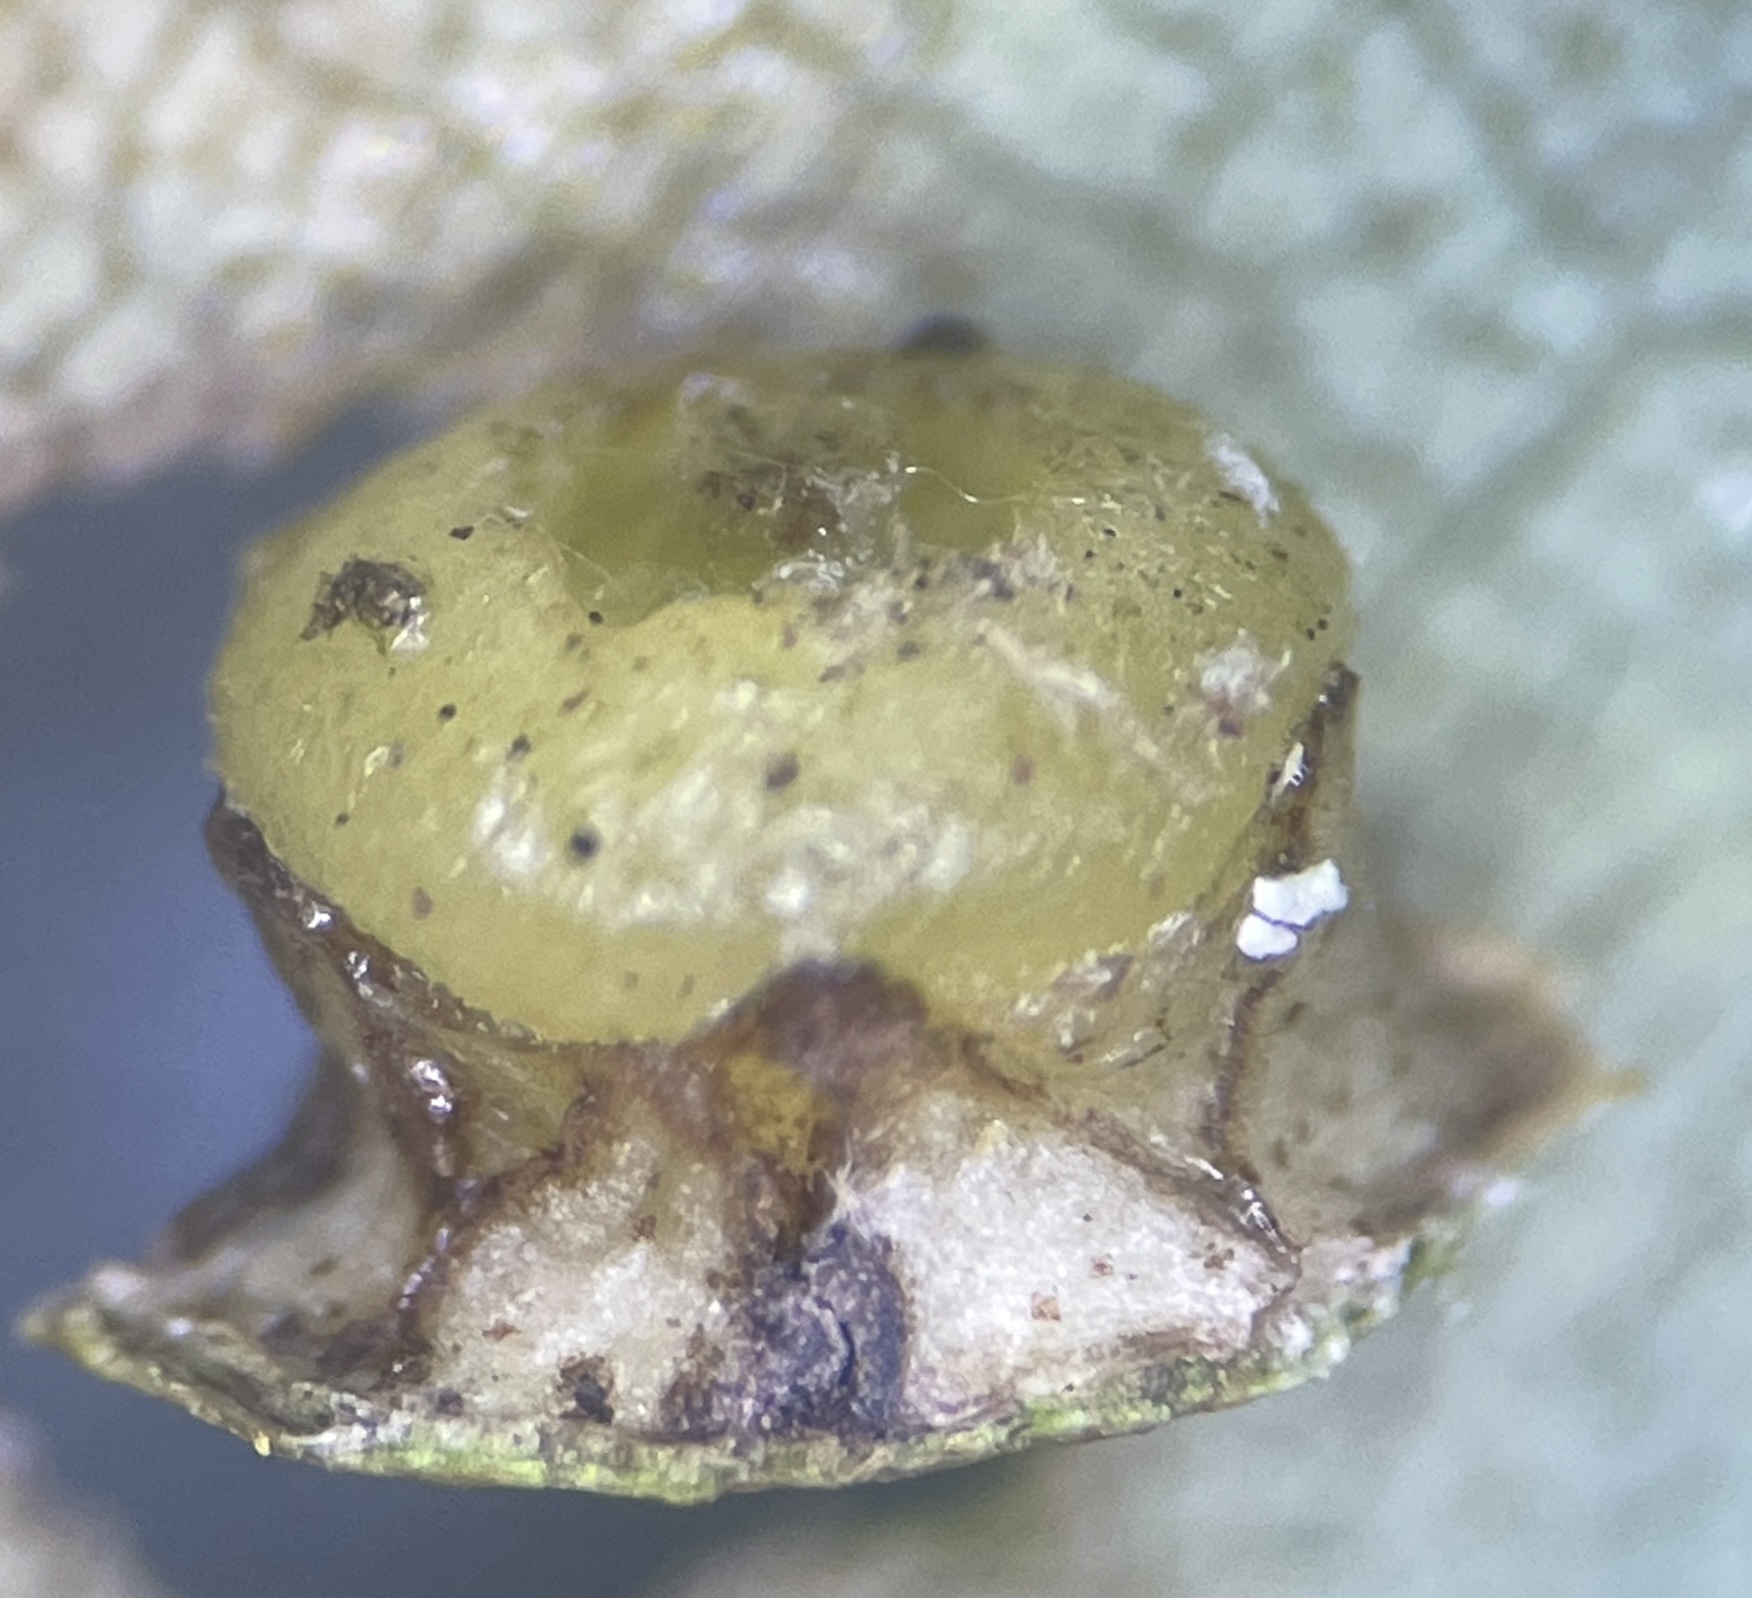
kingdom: Animalia
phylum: Arthropoda
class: Insecta
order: Diptera
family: Cecidomyiidae
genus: Caryomyia
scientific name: Caryomyia melicrustum
